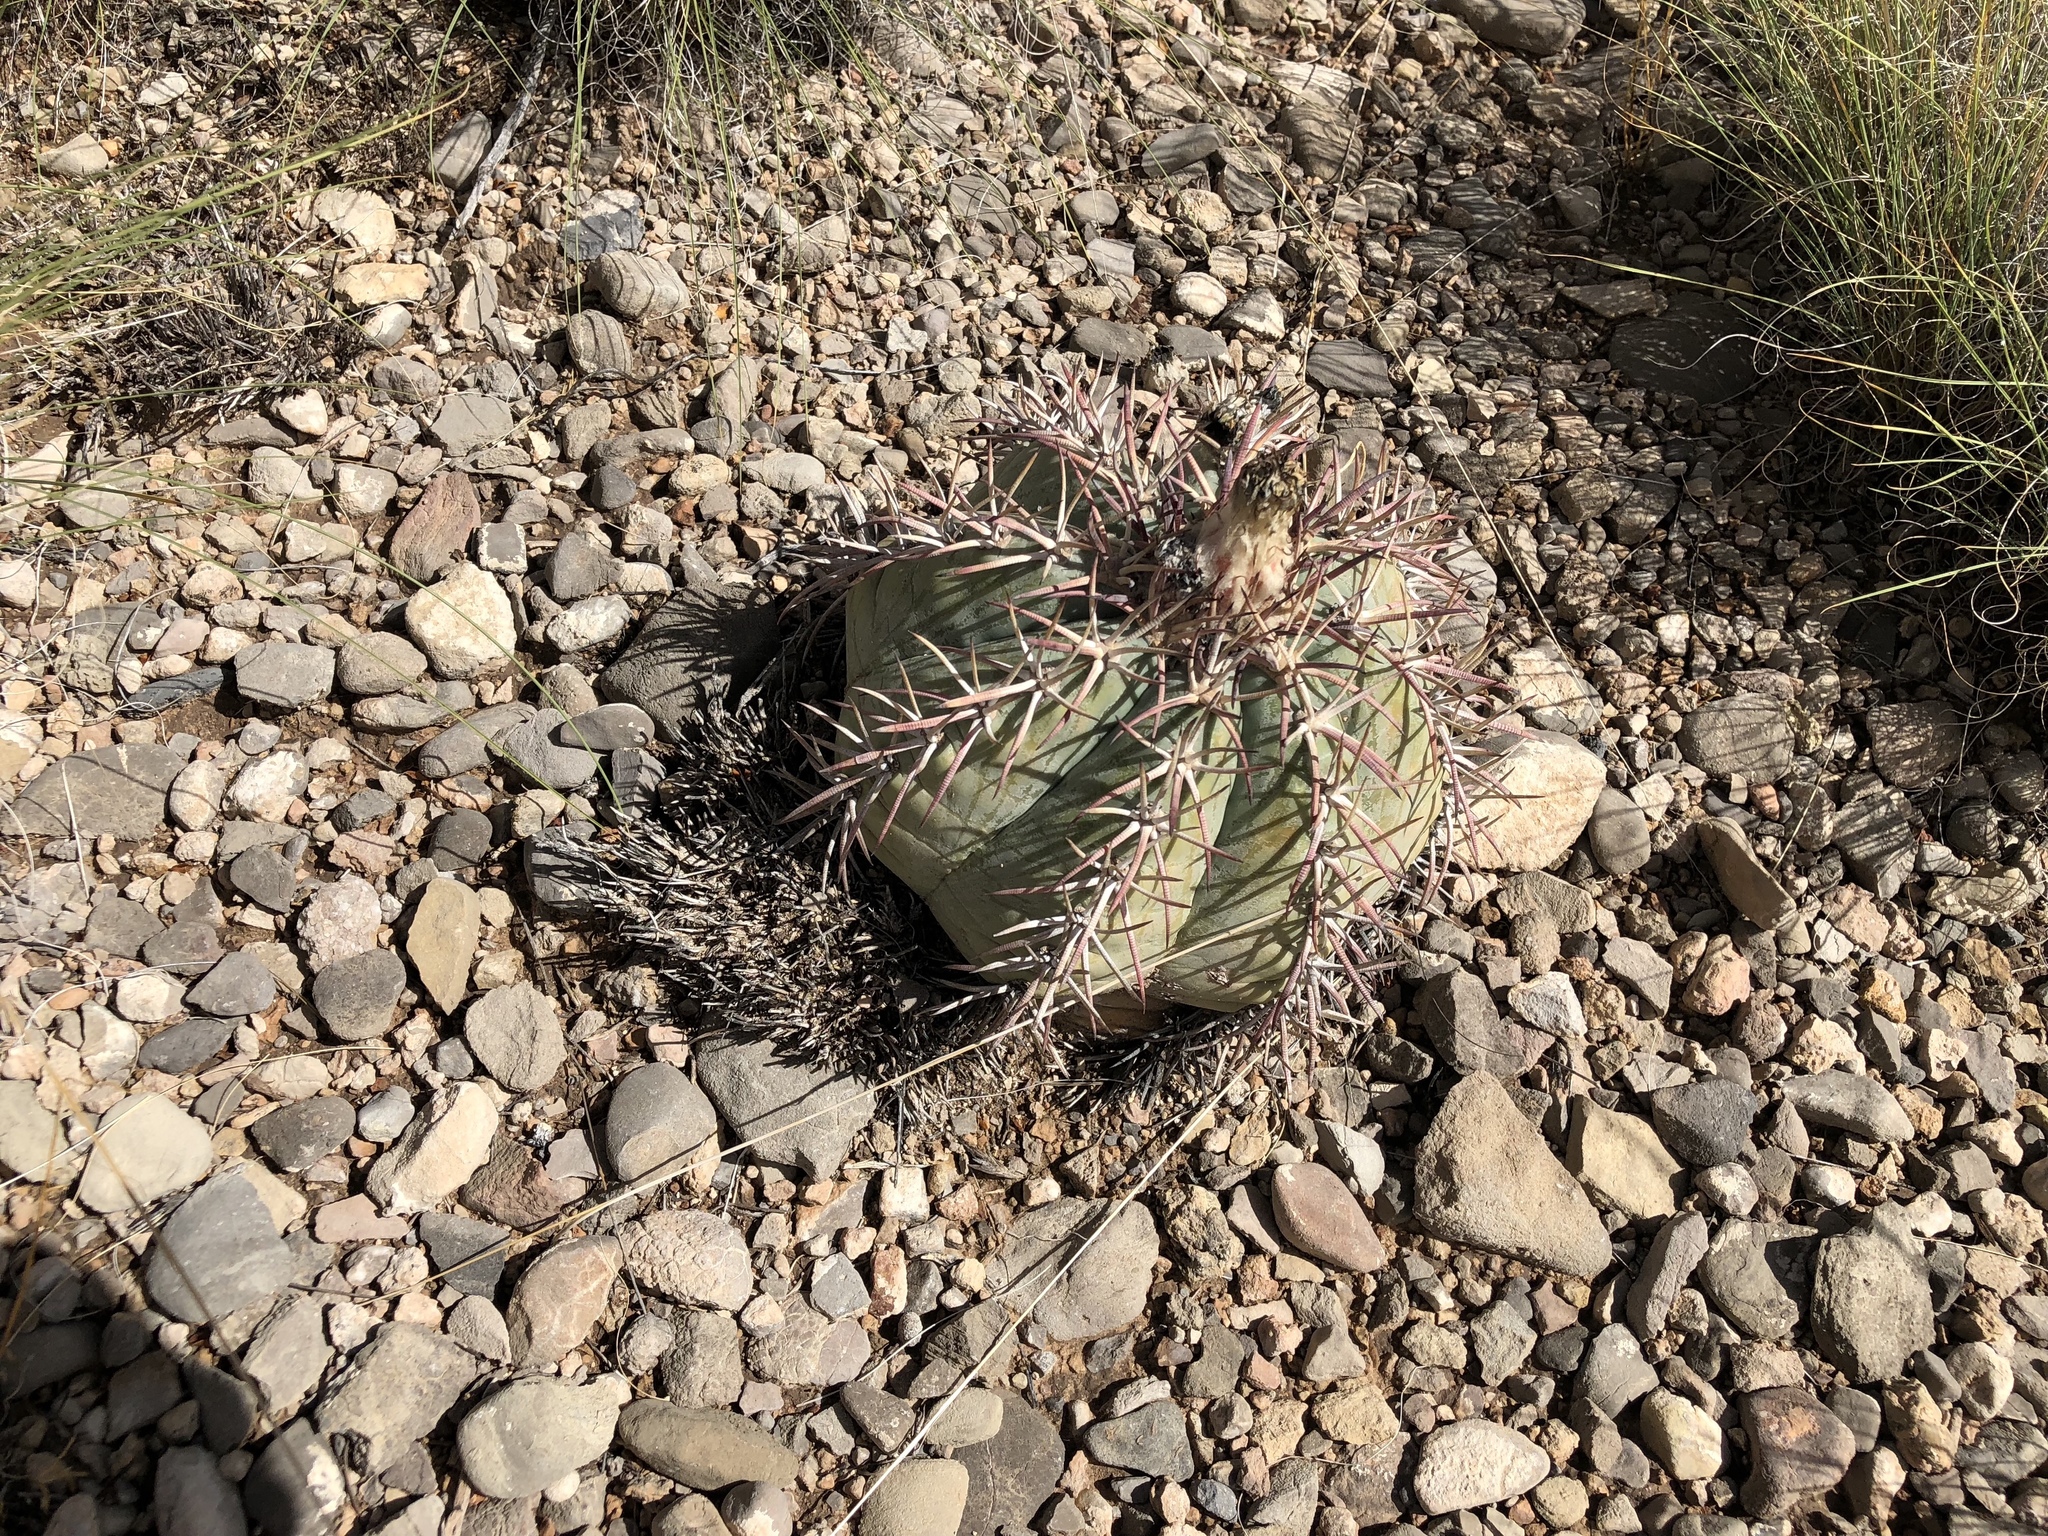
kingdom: Plantae
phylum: Tracheophyta
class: Magnoliopsida
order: Caryophyllales
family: Cactaceae
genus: Echinocactus
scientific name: Echinocactus horizonthalonius
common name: Devilshead
